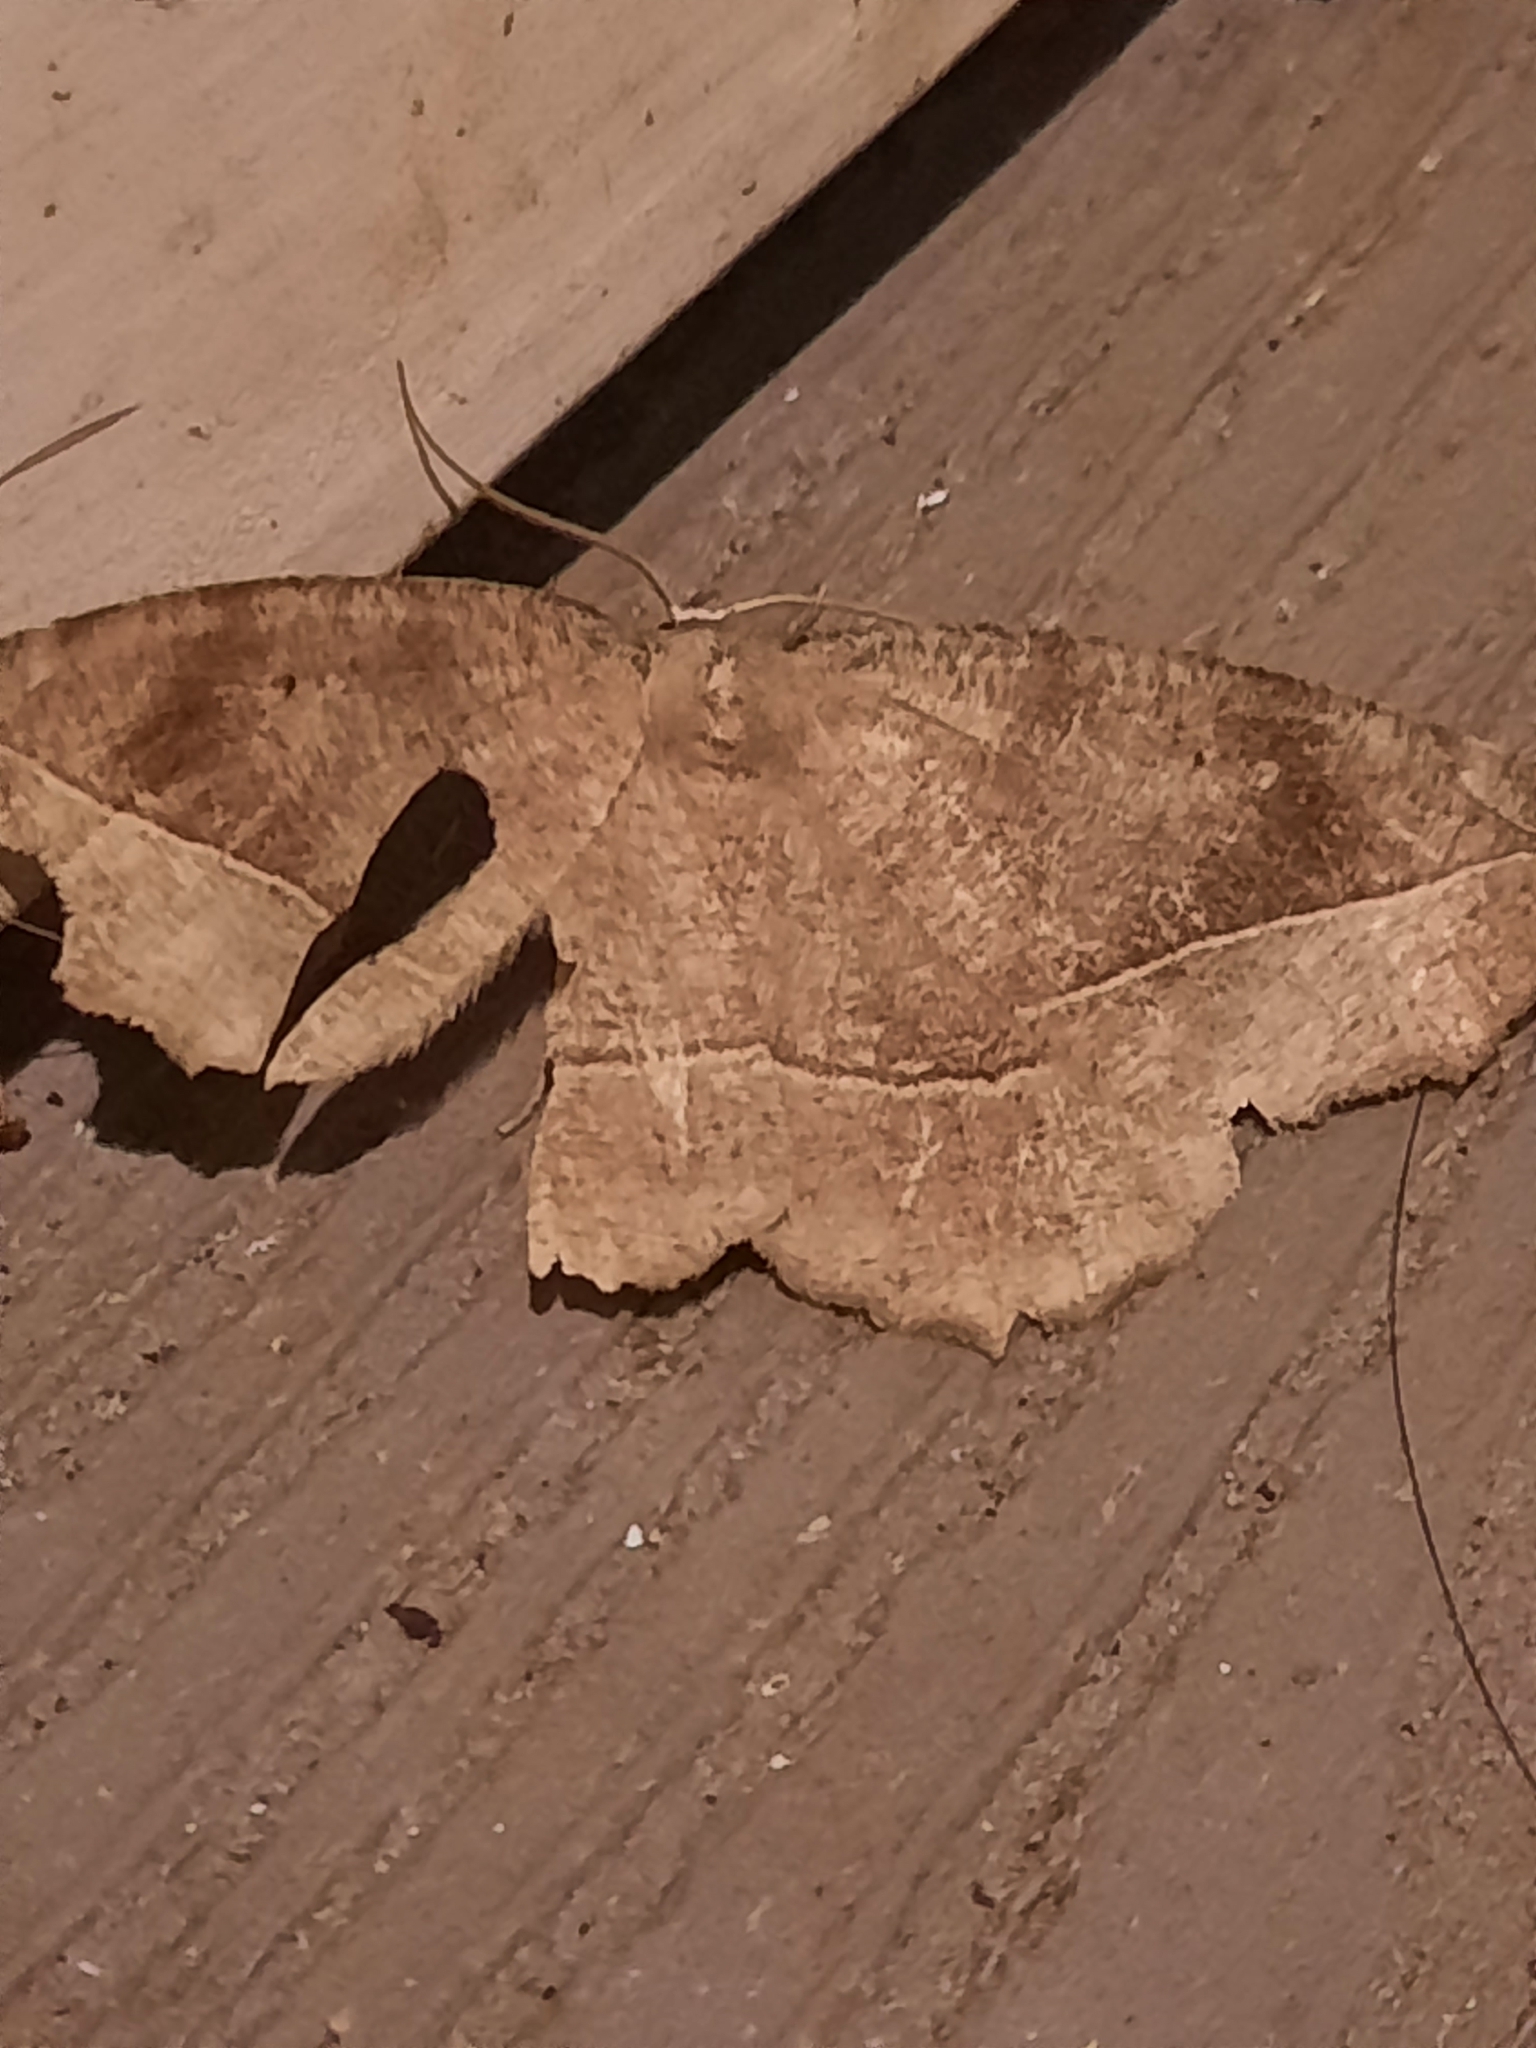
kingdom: Animalia
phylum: Arthropoda
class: Insecta
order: Lepidoptera
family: Geometridae
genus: Eutrapela
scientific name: Eutrapela clemataria
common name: Curved-toothed geometer
